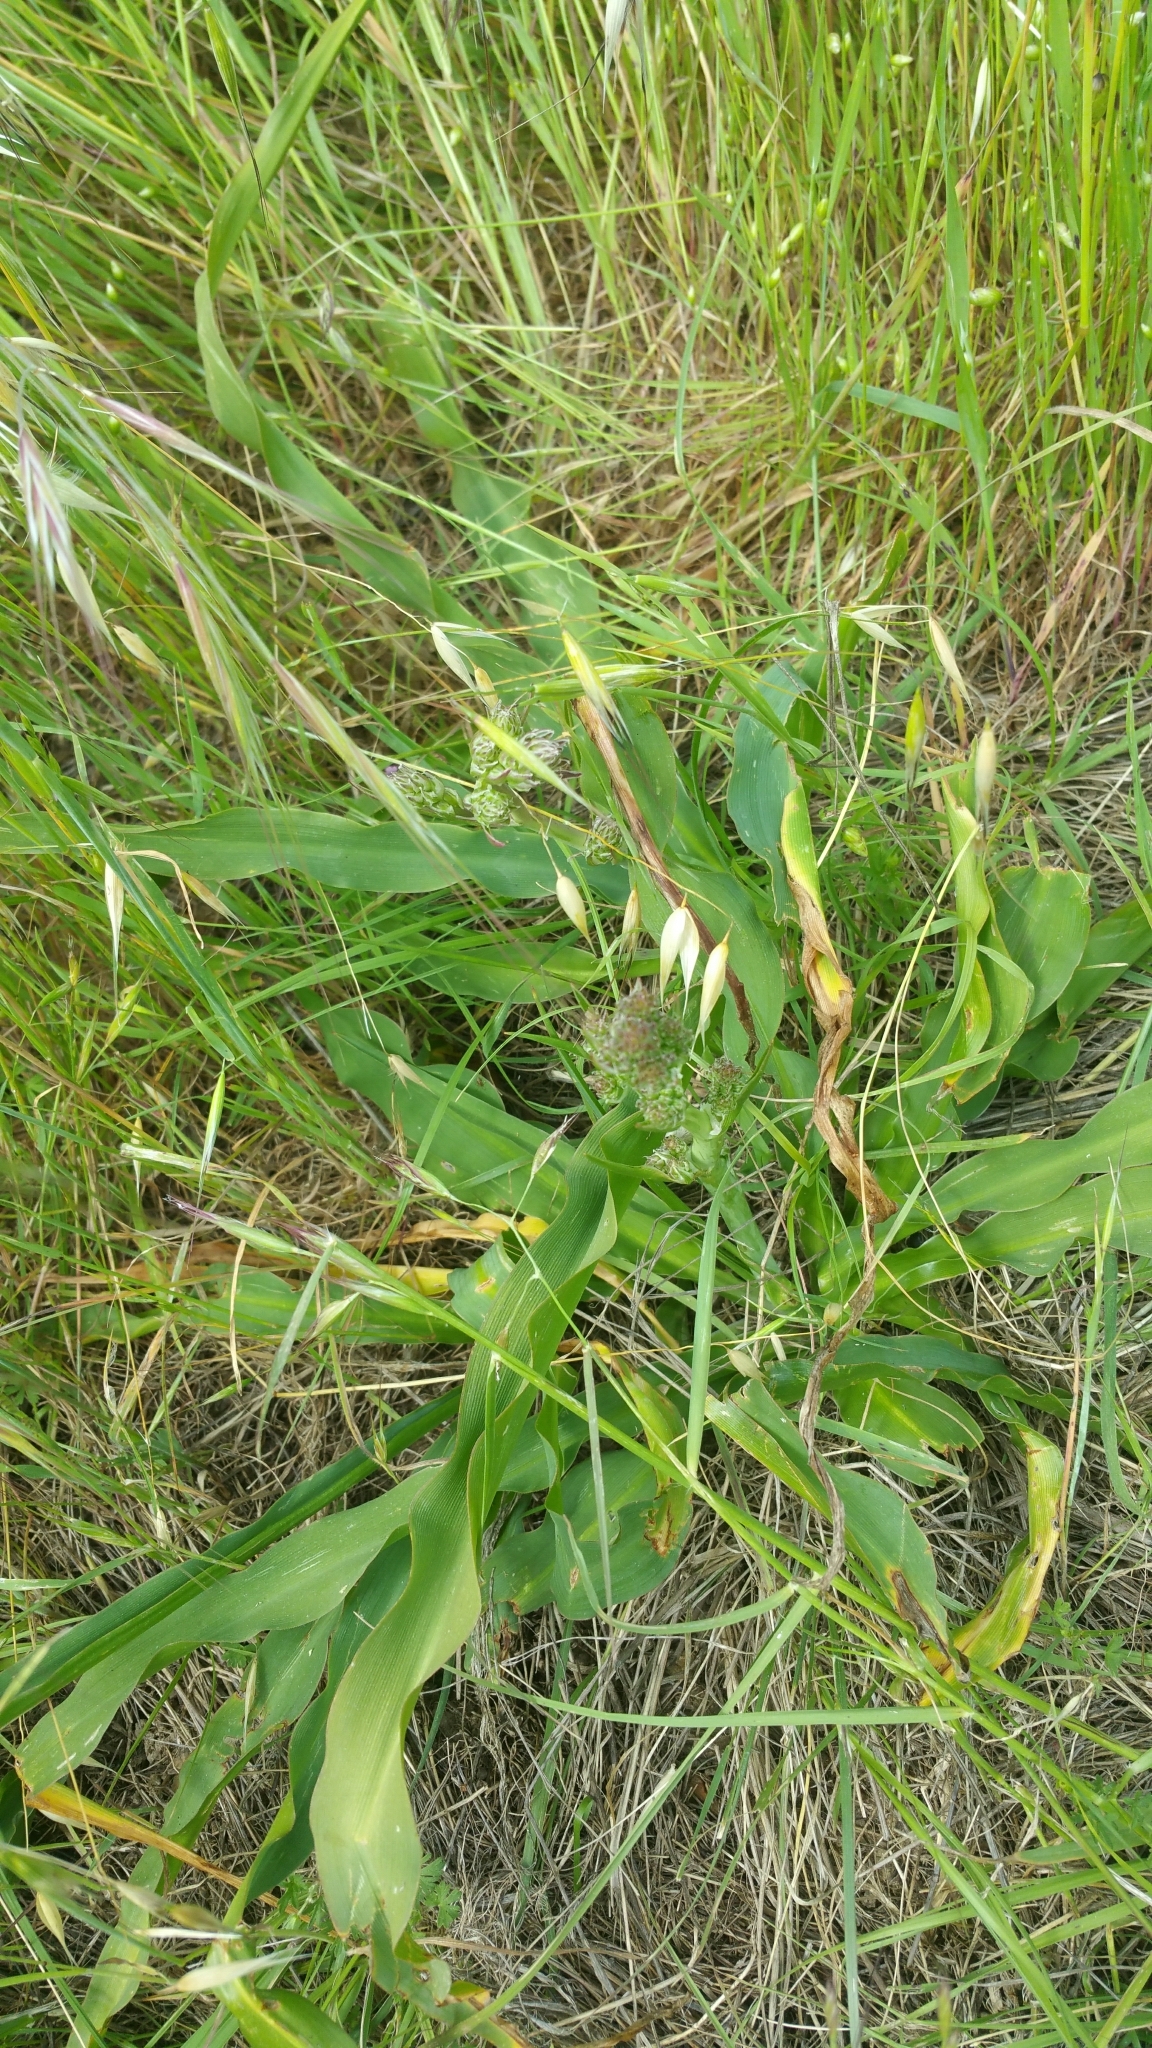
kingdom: Plantae
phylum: Tracheophyta
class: Liliopsida
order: Asparagales
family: Asparagaceae
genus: Chlorogalum
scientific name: Chlorogalum pomeridianum
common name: Amole
